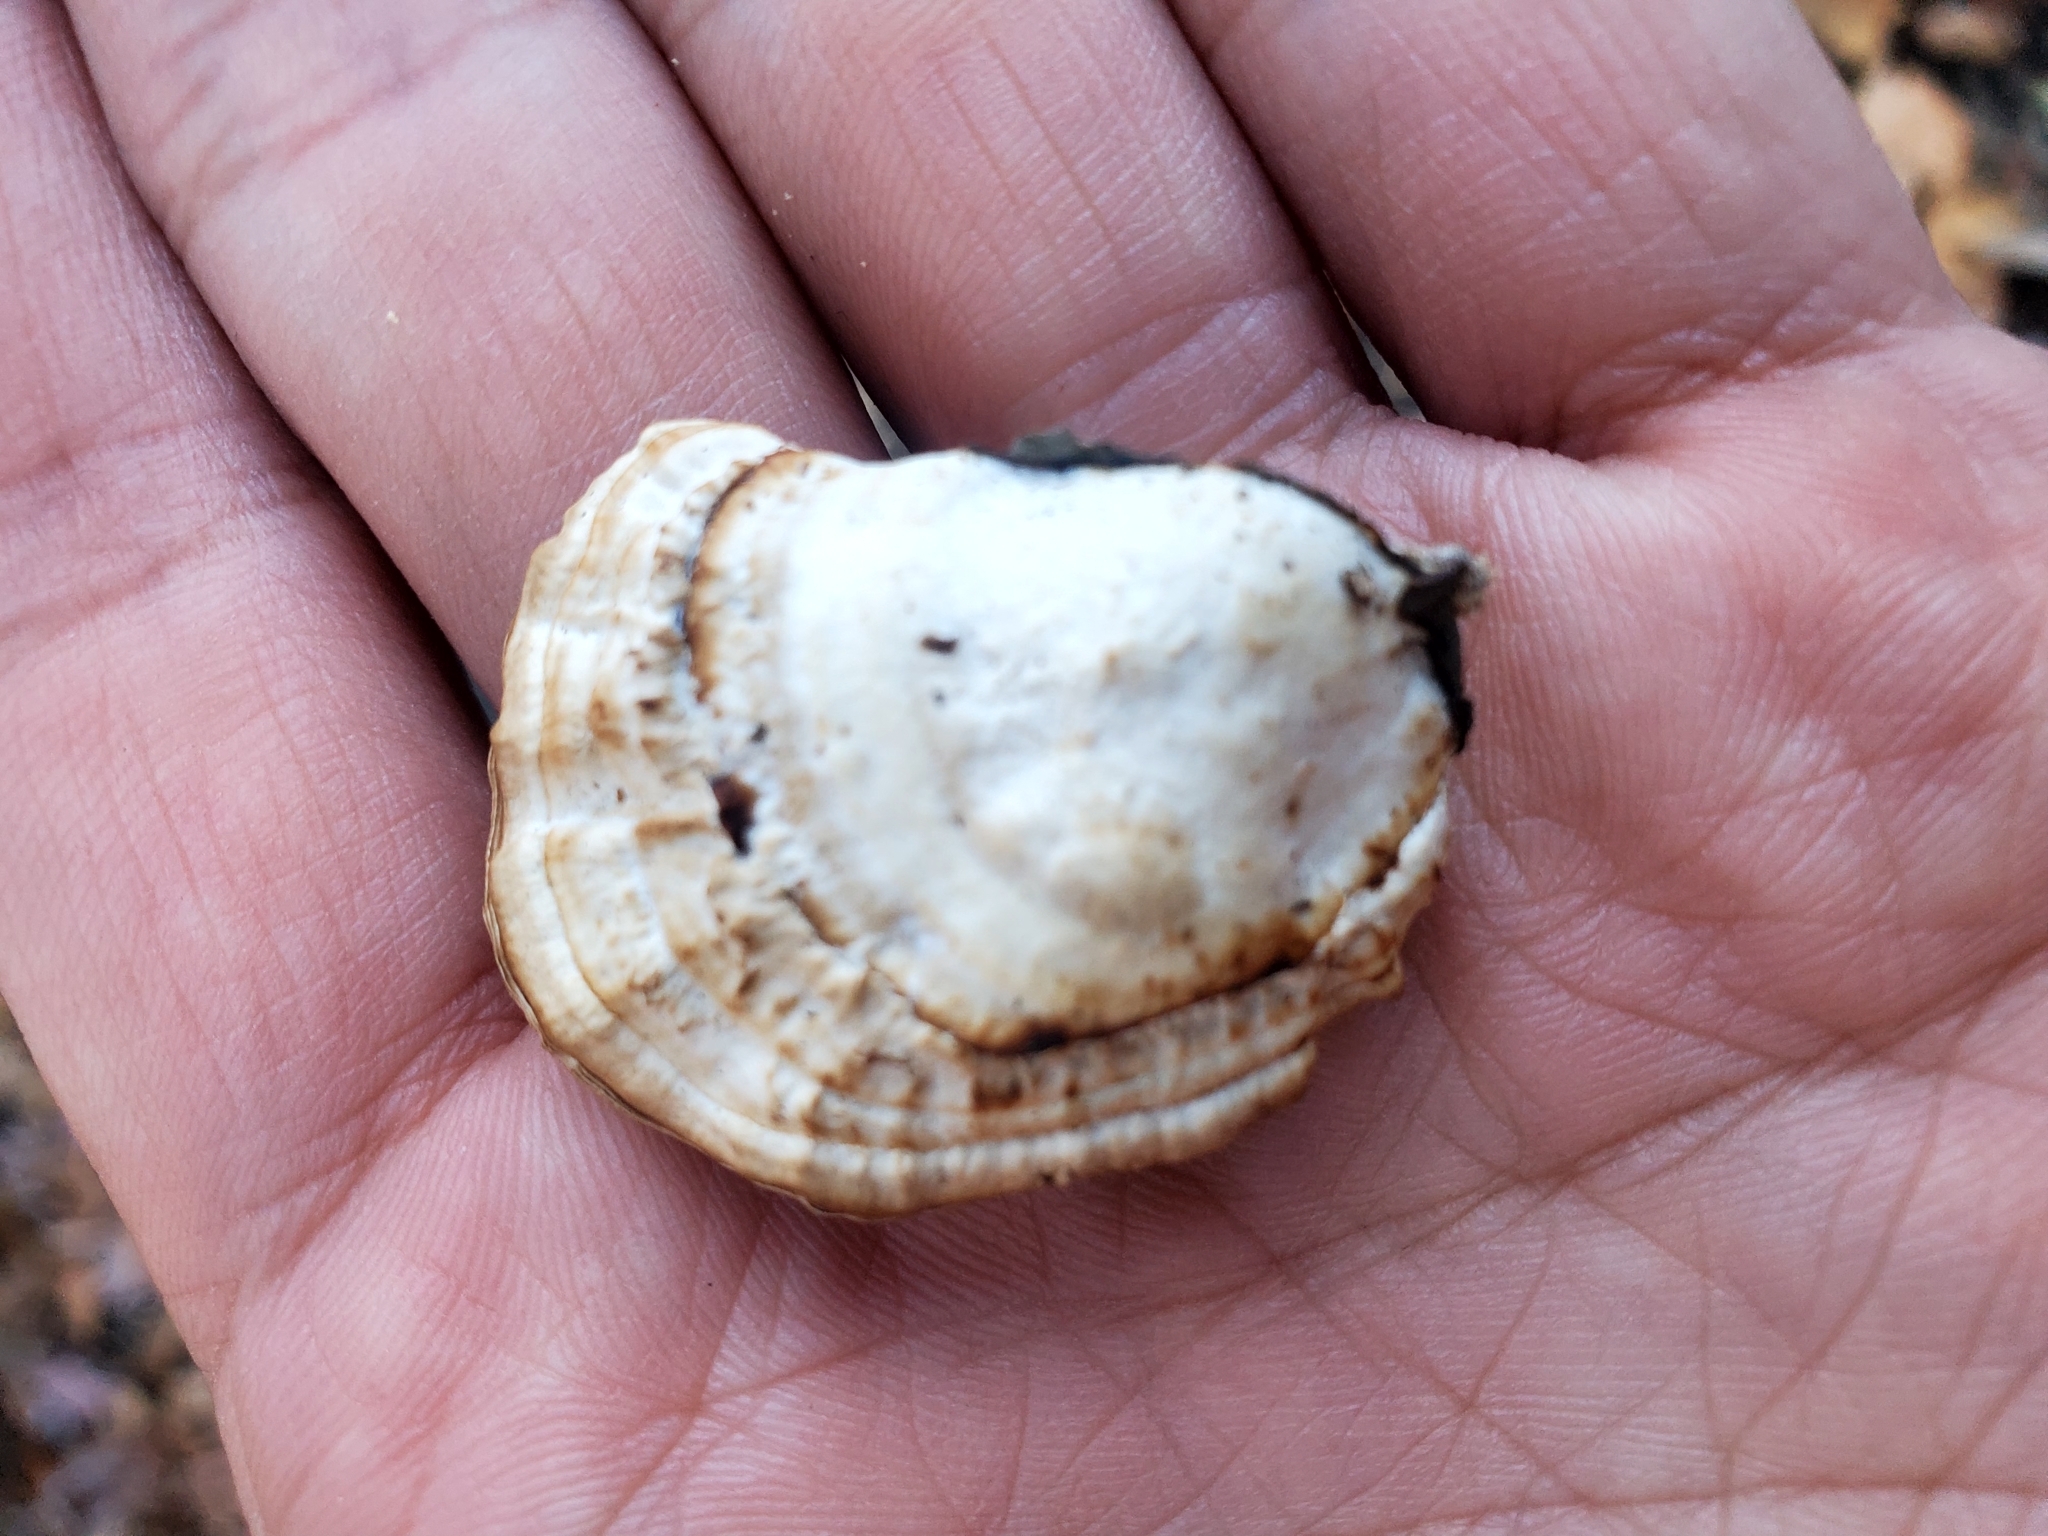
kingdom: Fungi
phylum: Basidiomycota
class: Agaricomycetes
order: Polyporales
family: Polyporaceae
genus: Daedaleopsis
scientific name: Daedaleopsis confragosa
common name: Blushing bracket
